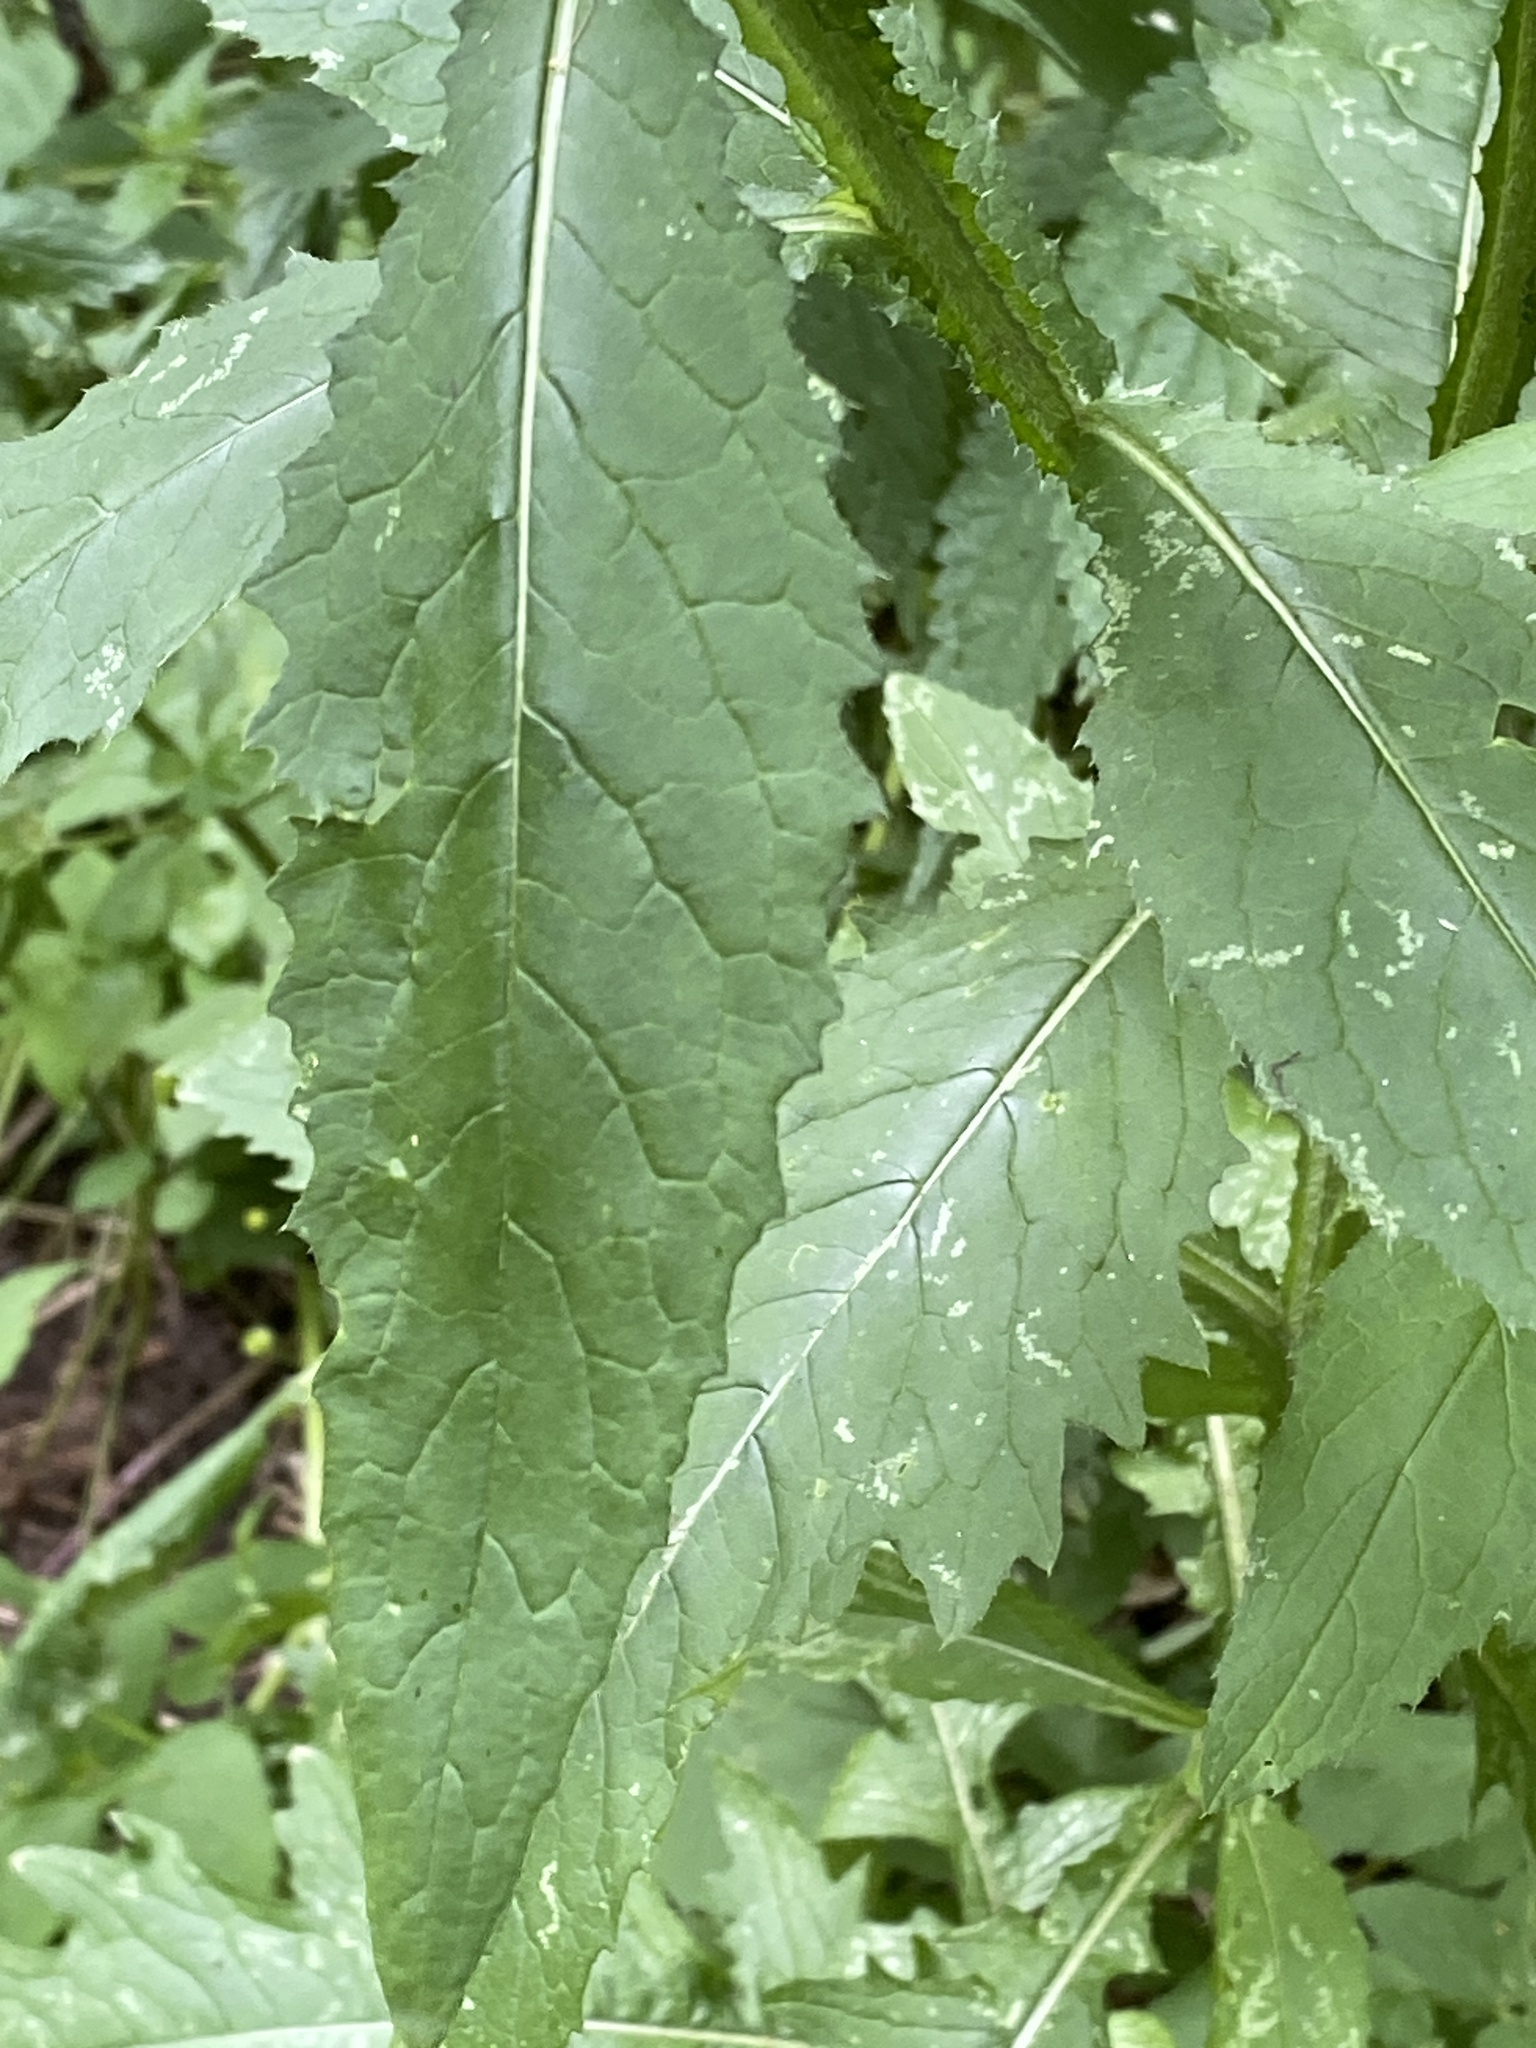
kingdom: Plantae
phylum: Tracheophyta
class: Magnoliopsida
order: Asterales
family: Asteraceae
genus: Carduus
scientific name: Carduus crispus
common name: Welted thistle
